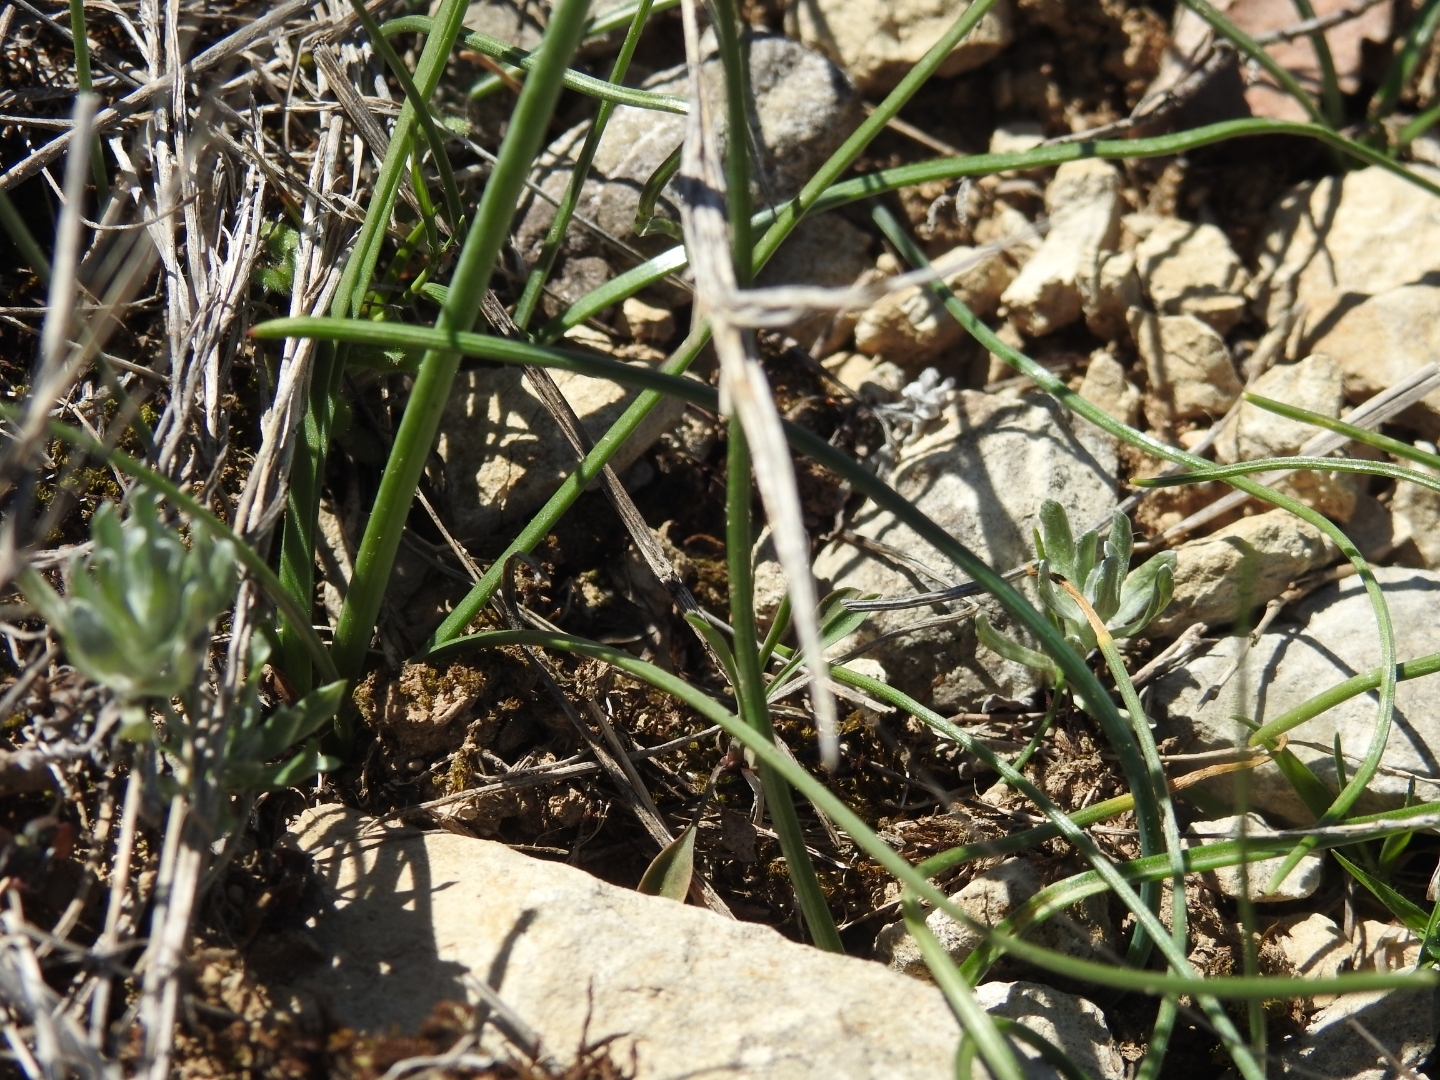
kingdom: Plantae
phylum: Tracheophyta
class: Liliopsida
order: Asparagales
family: Amaryllidaceae
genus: Narcissus
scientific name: Narcissus assoanus
